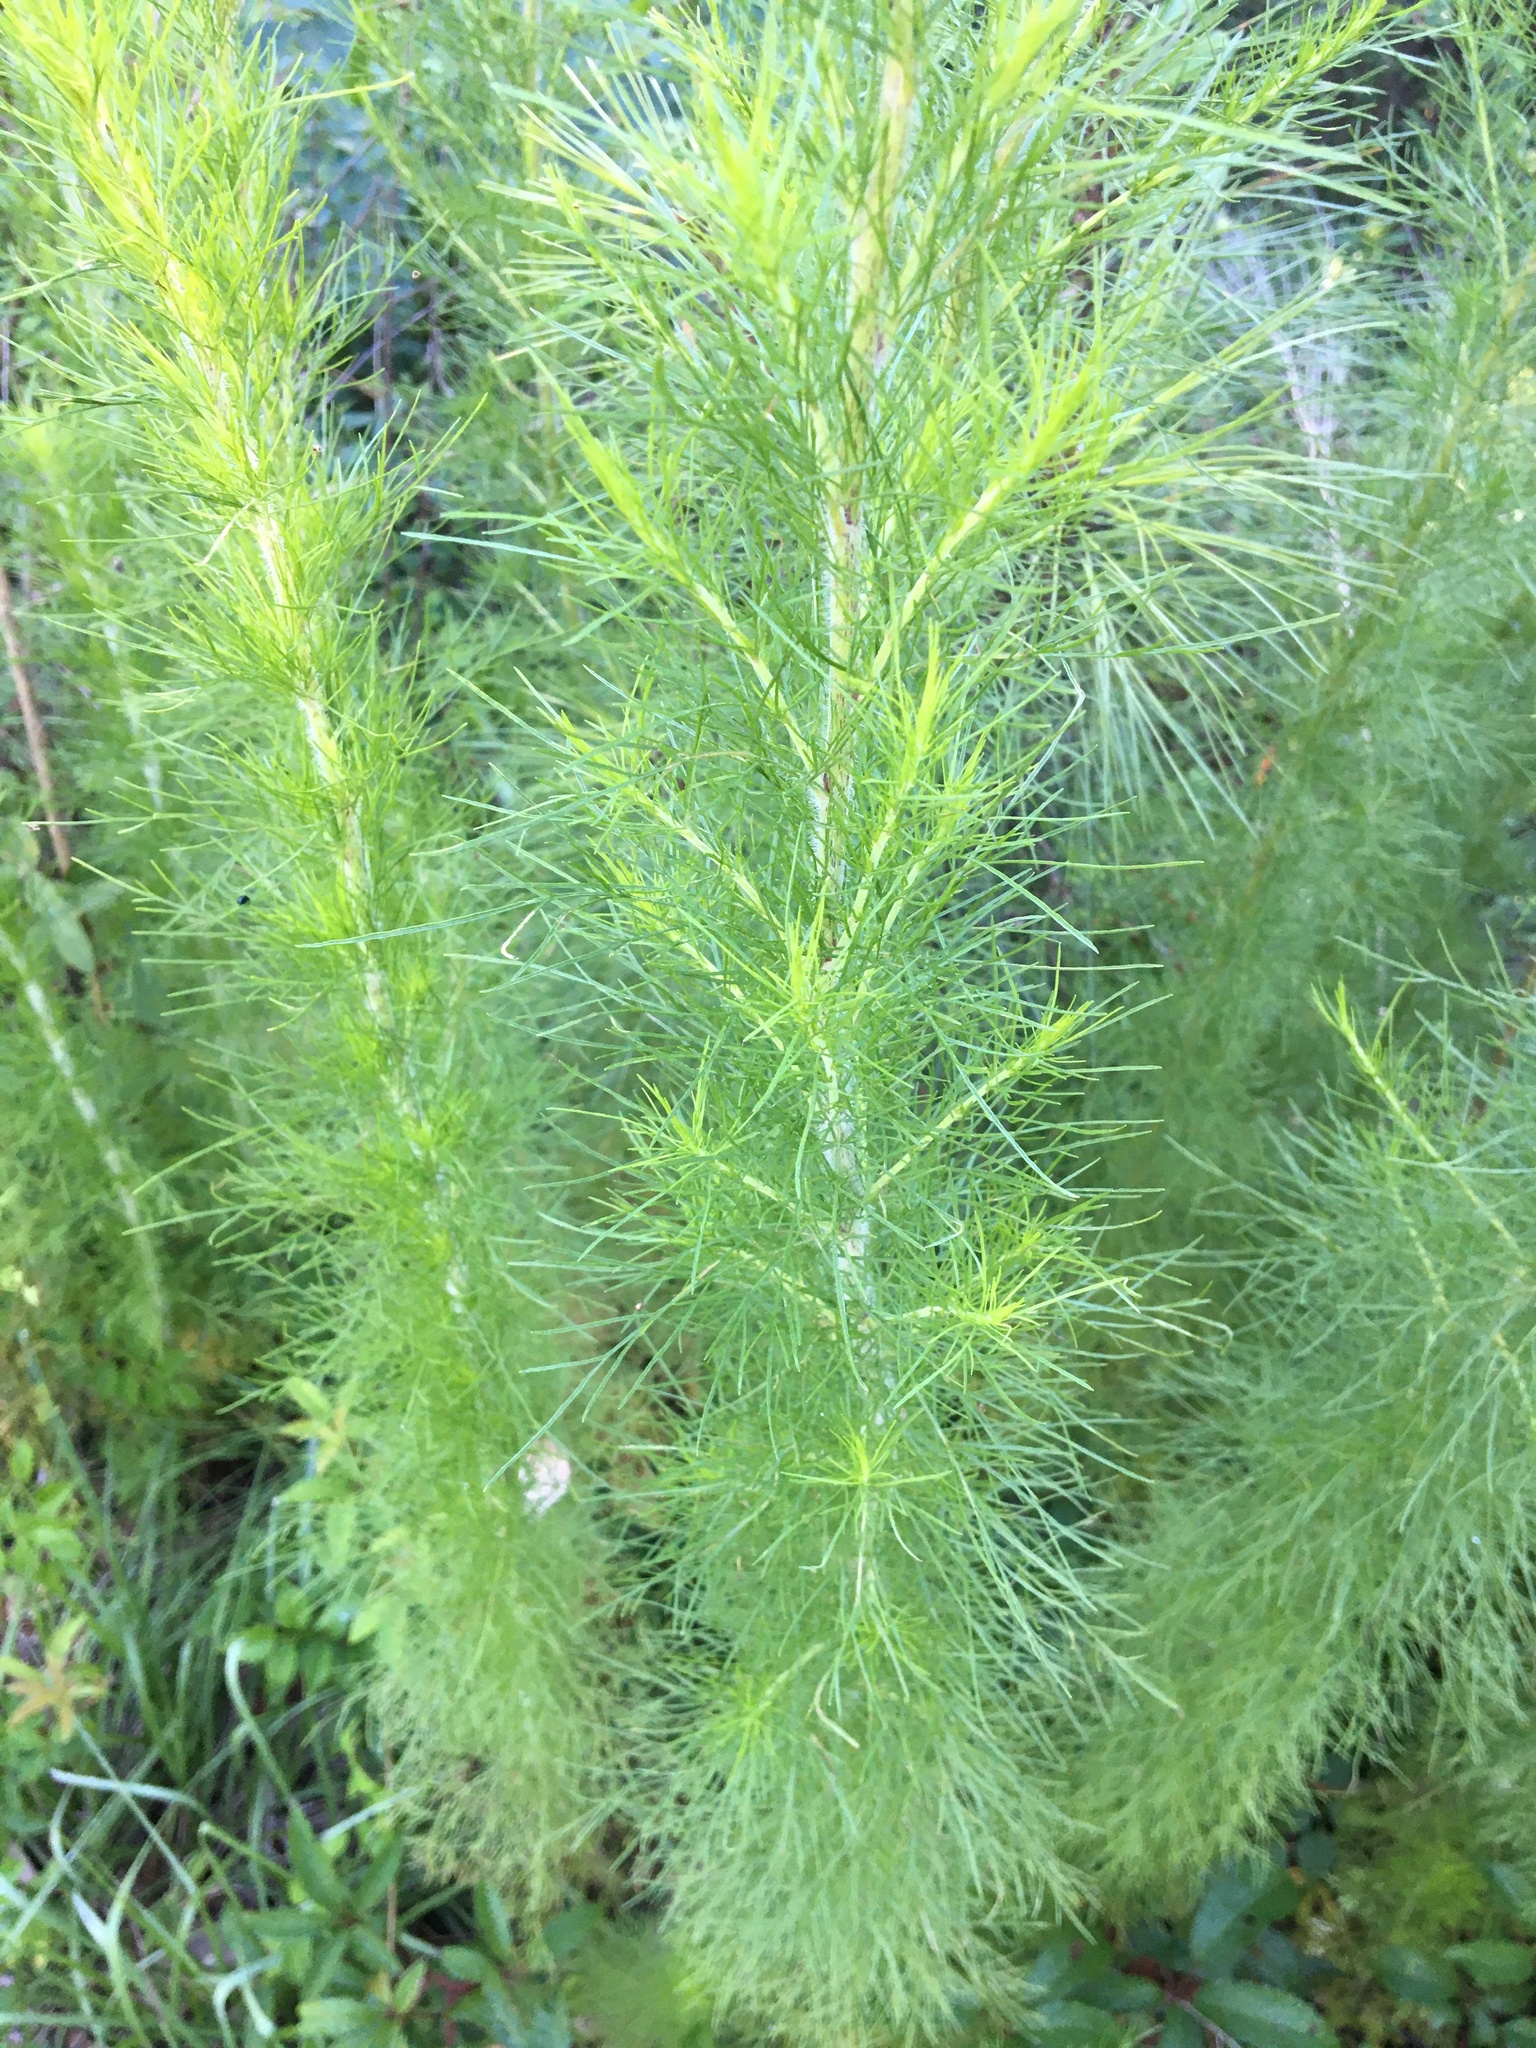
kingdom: Plantae
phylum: Tracheophyta
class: Magnoliopsida
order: Asterales
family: Asteraceae
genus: Eupatorium
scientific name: Eupatorium capillifolium
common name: Dog-fennel
